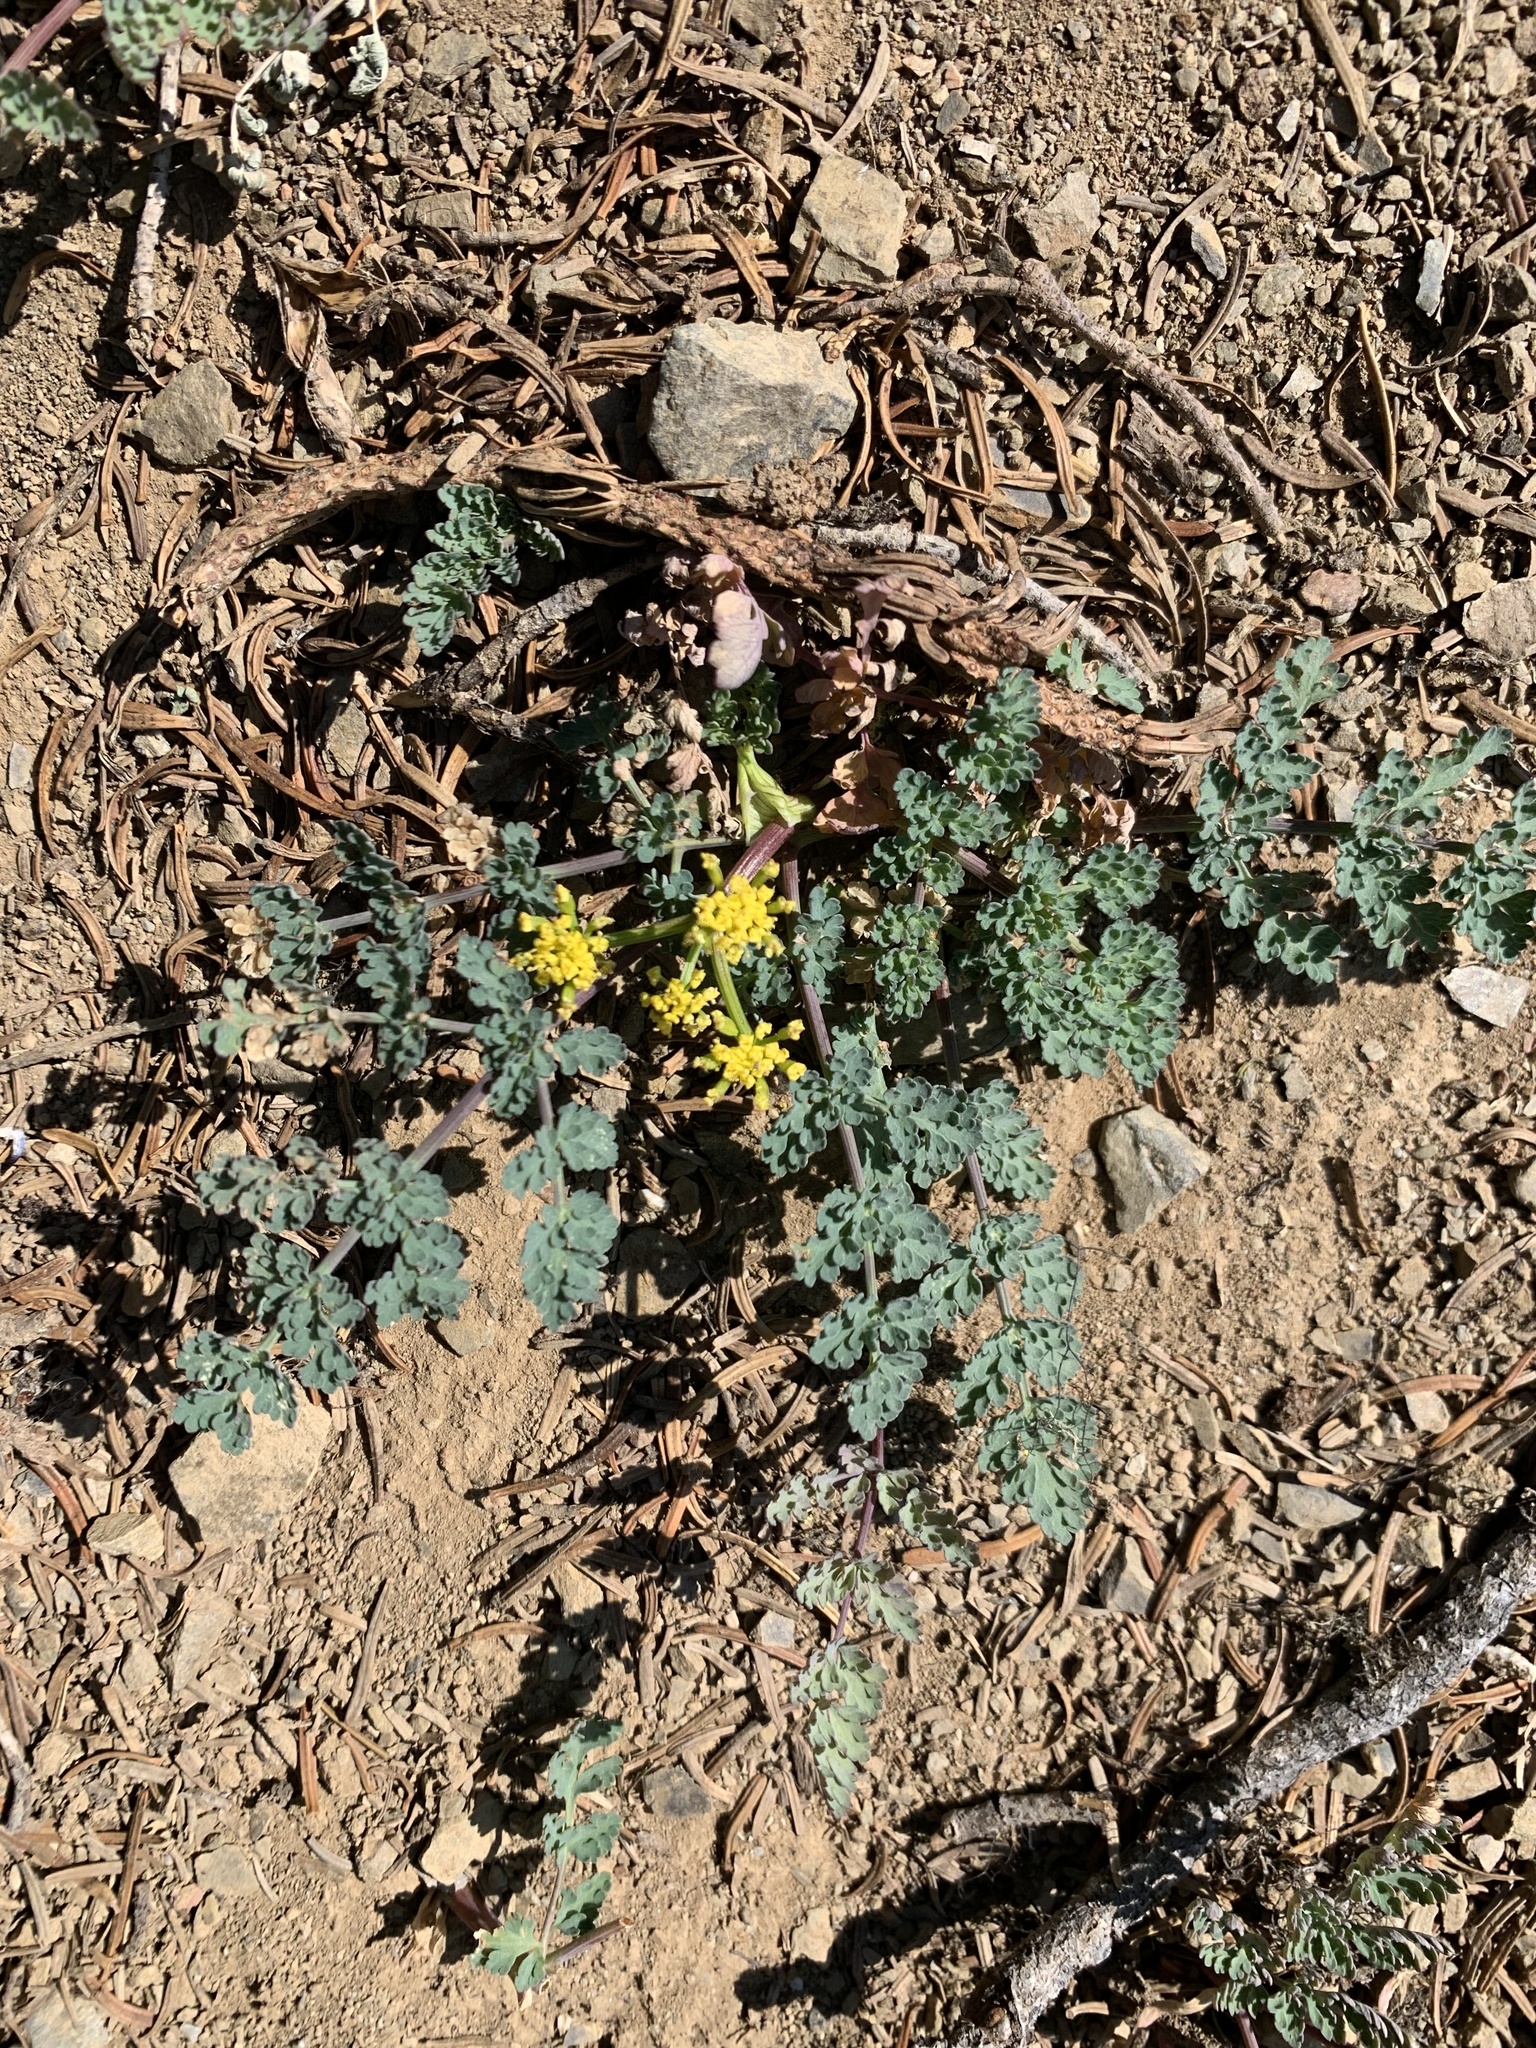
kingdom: Plantae
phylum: Tracheophyta
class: Magnoliopsida
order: Apiales
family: Apiaceae
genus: Lomatium
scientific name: Lomatium martindalei
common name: Cascade desert-parsley
